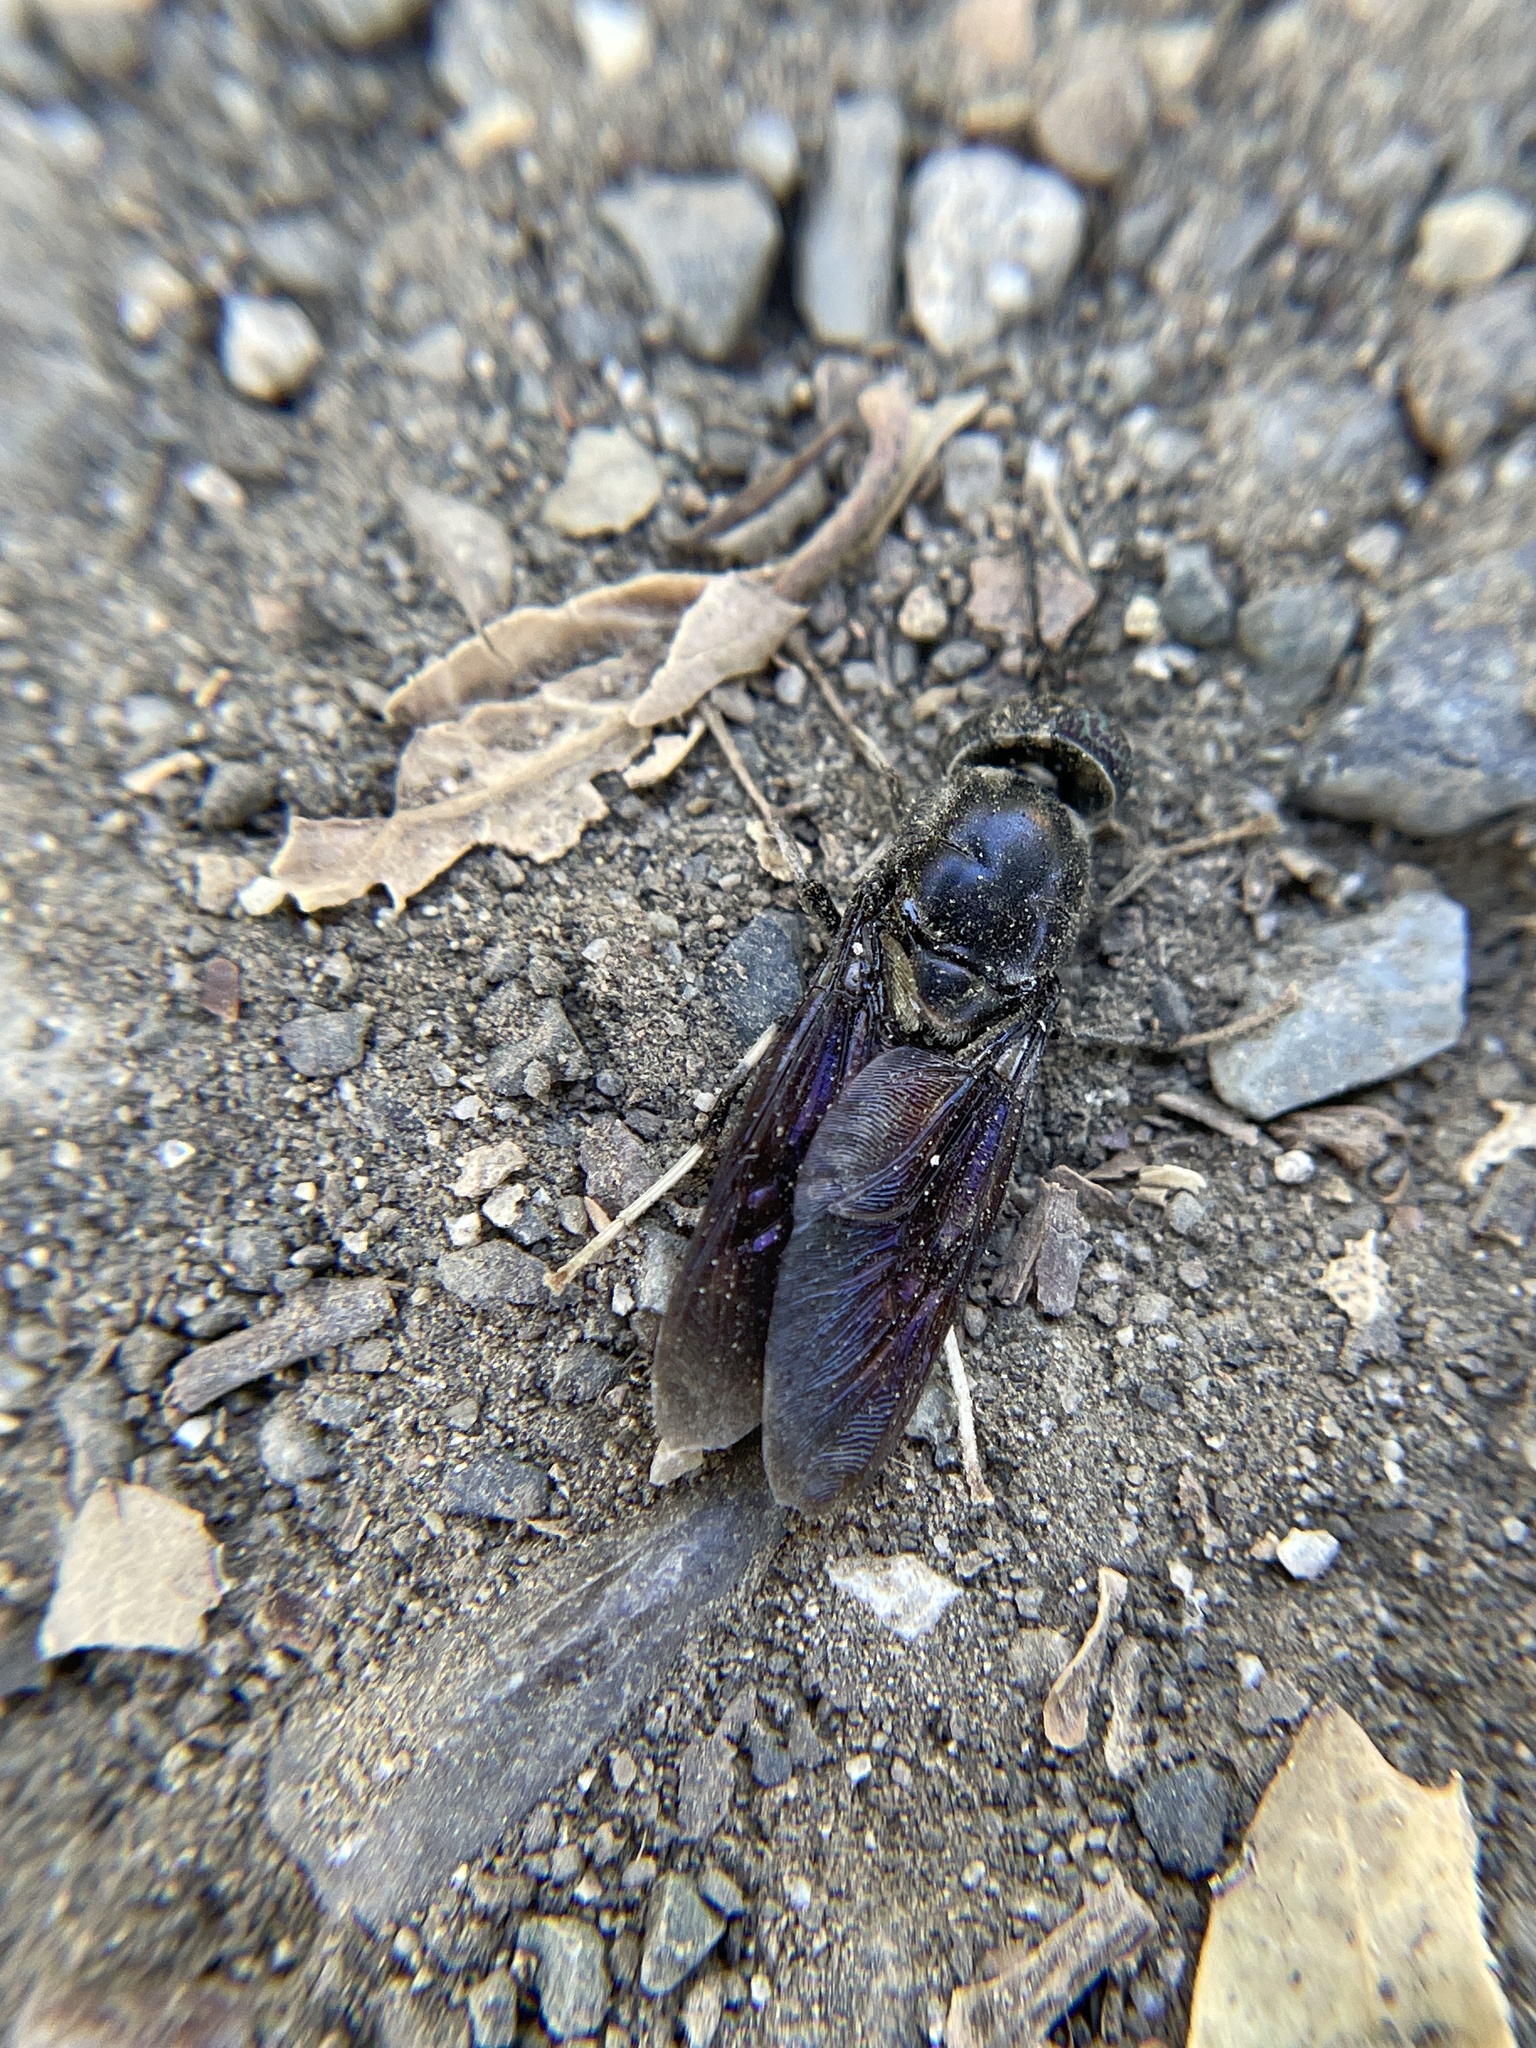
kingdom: Animalia
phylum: Arthropoda
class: Insecta
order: Diptera
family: Stratiomyidae
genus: Hermetia
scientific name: Hermetia illucens
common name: Black soldier fly
